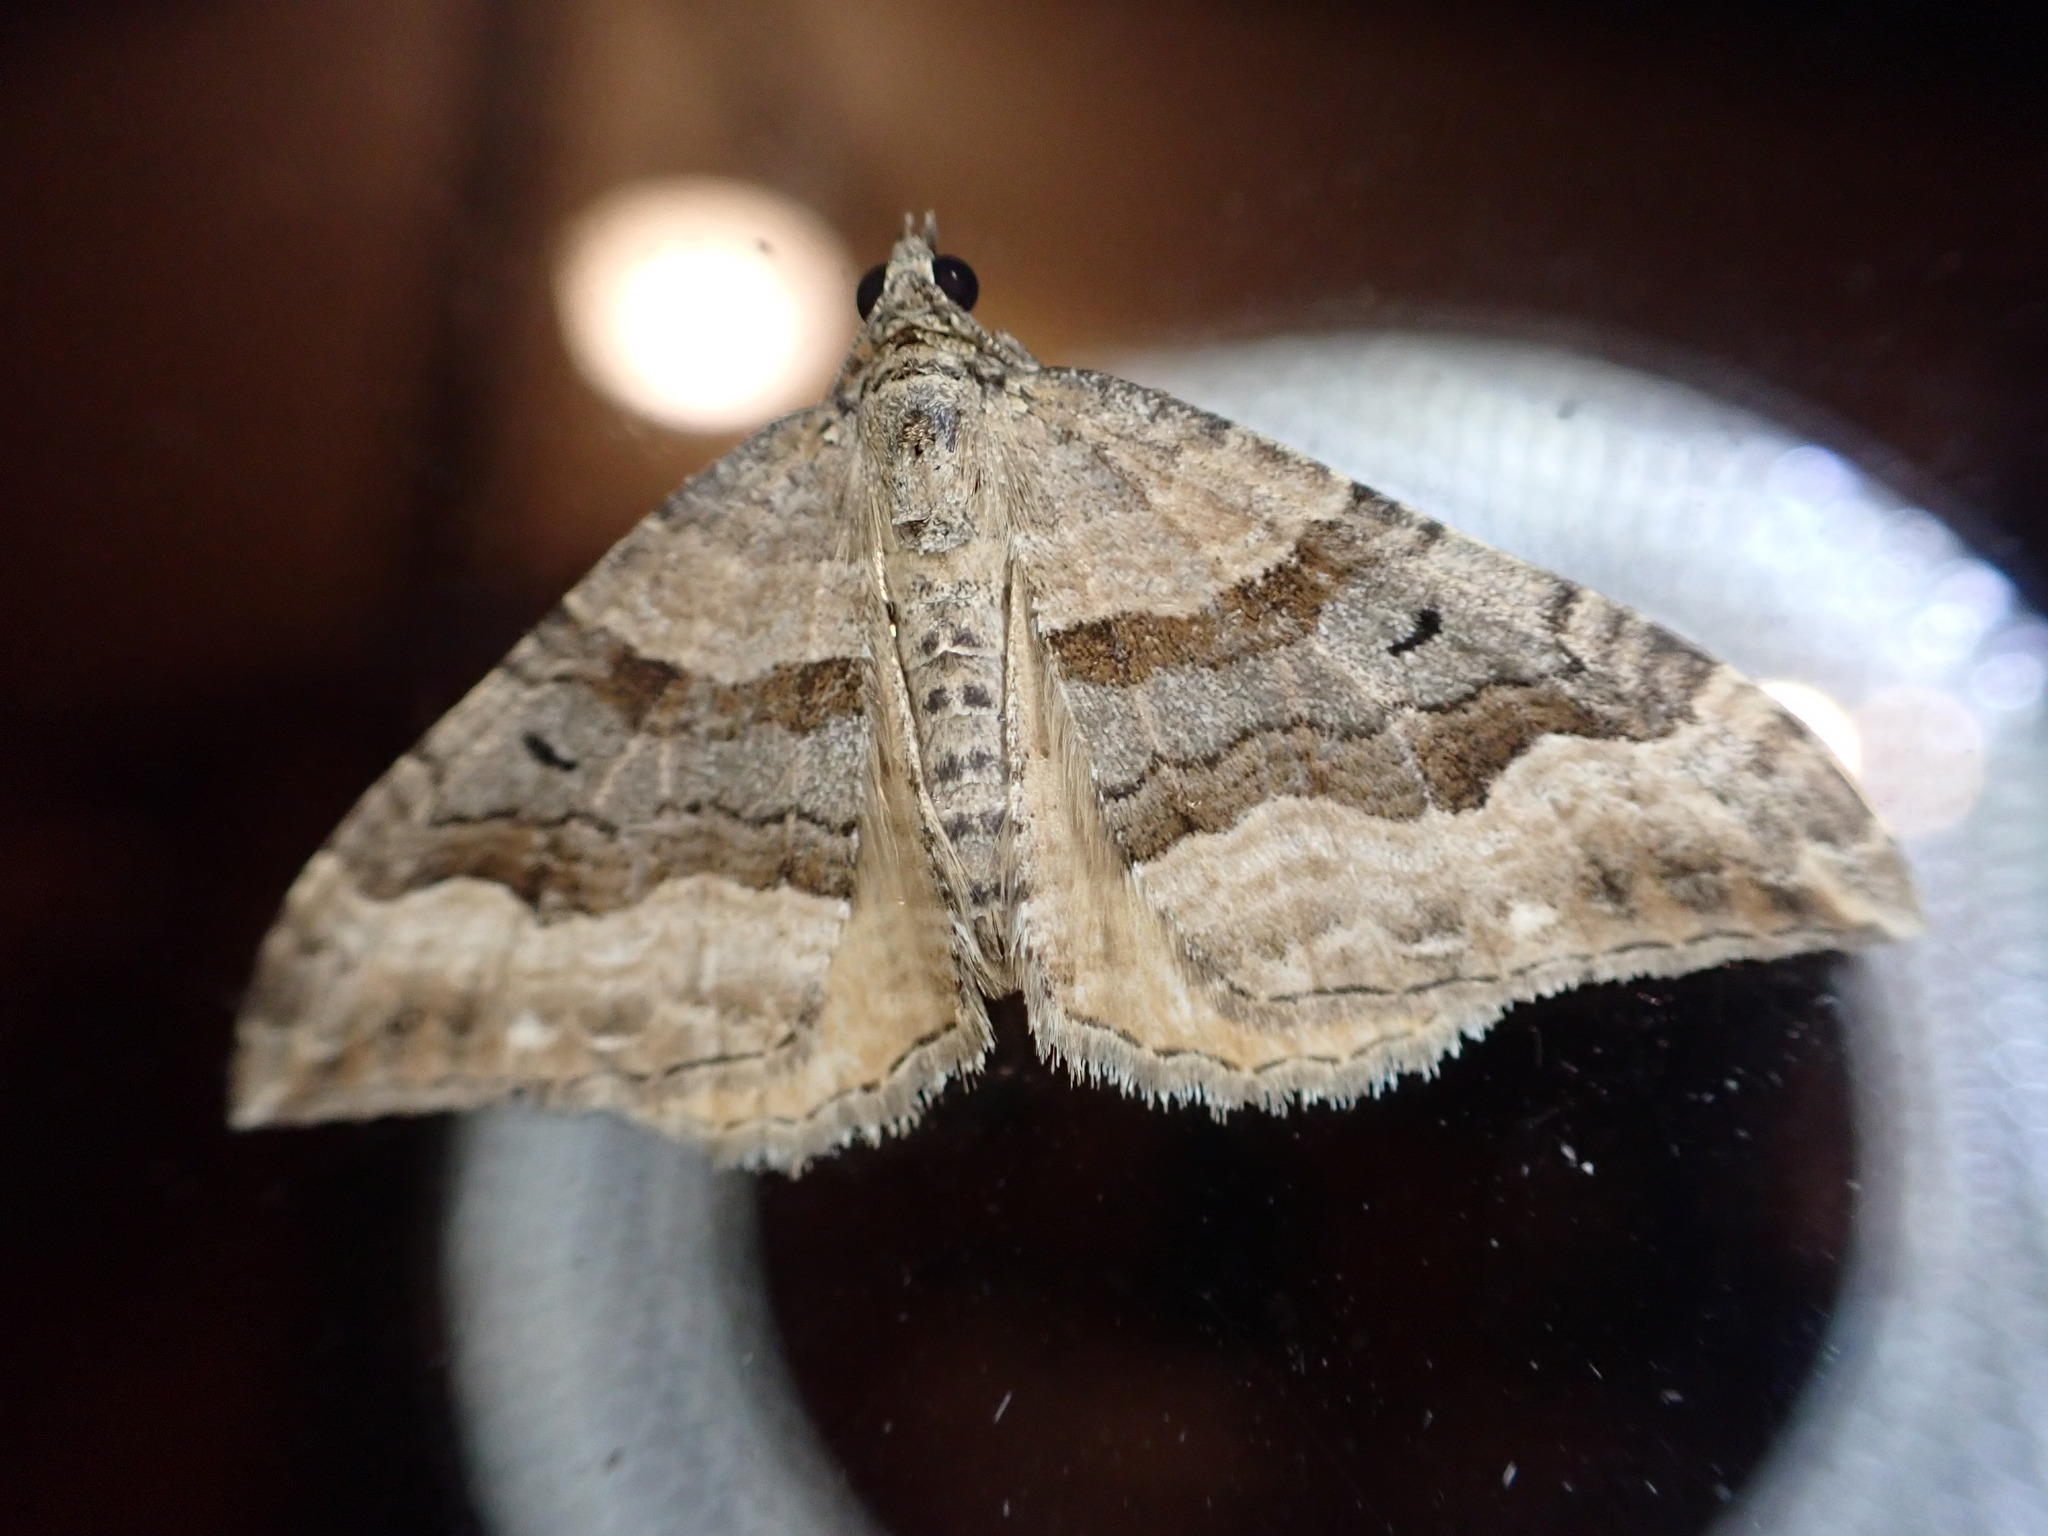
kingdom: Animalia
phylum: Arthropoda
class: Insecta
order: Lepidoptera
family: Geometridae
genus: Hydriomena
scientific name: Hydriomena deltoidata
